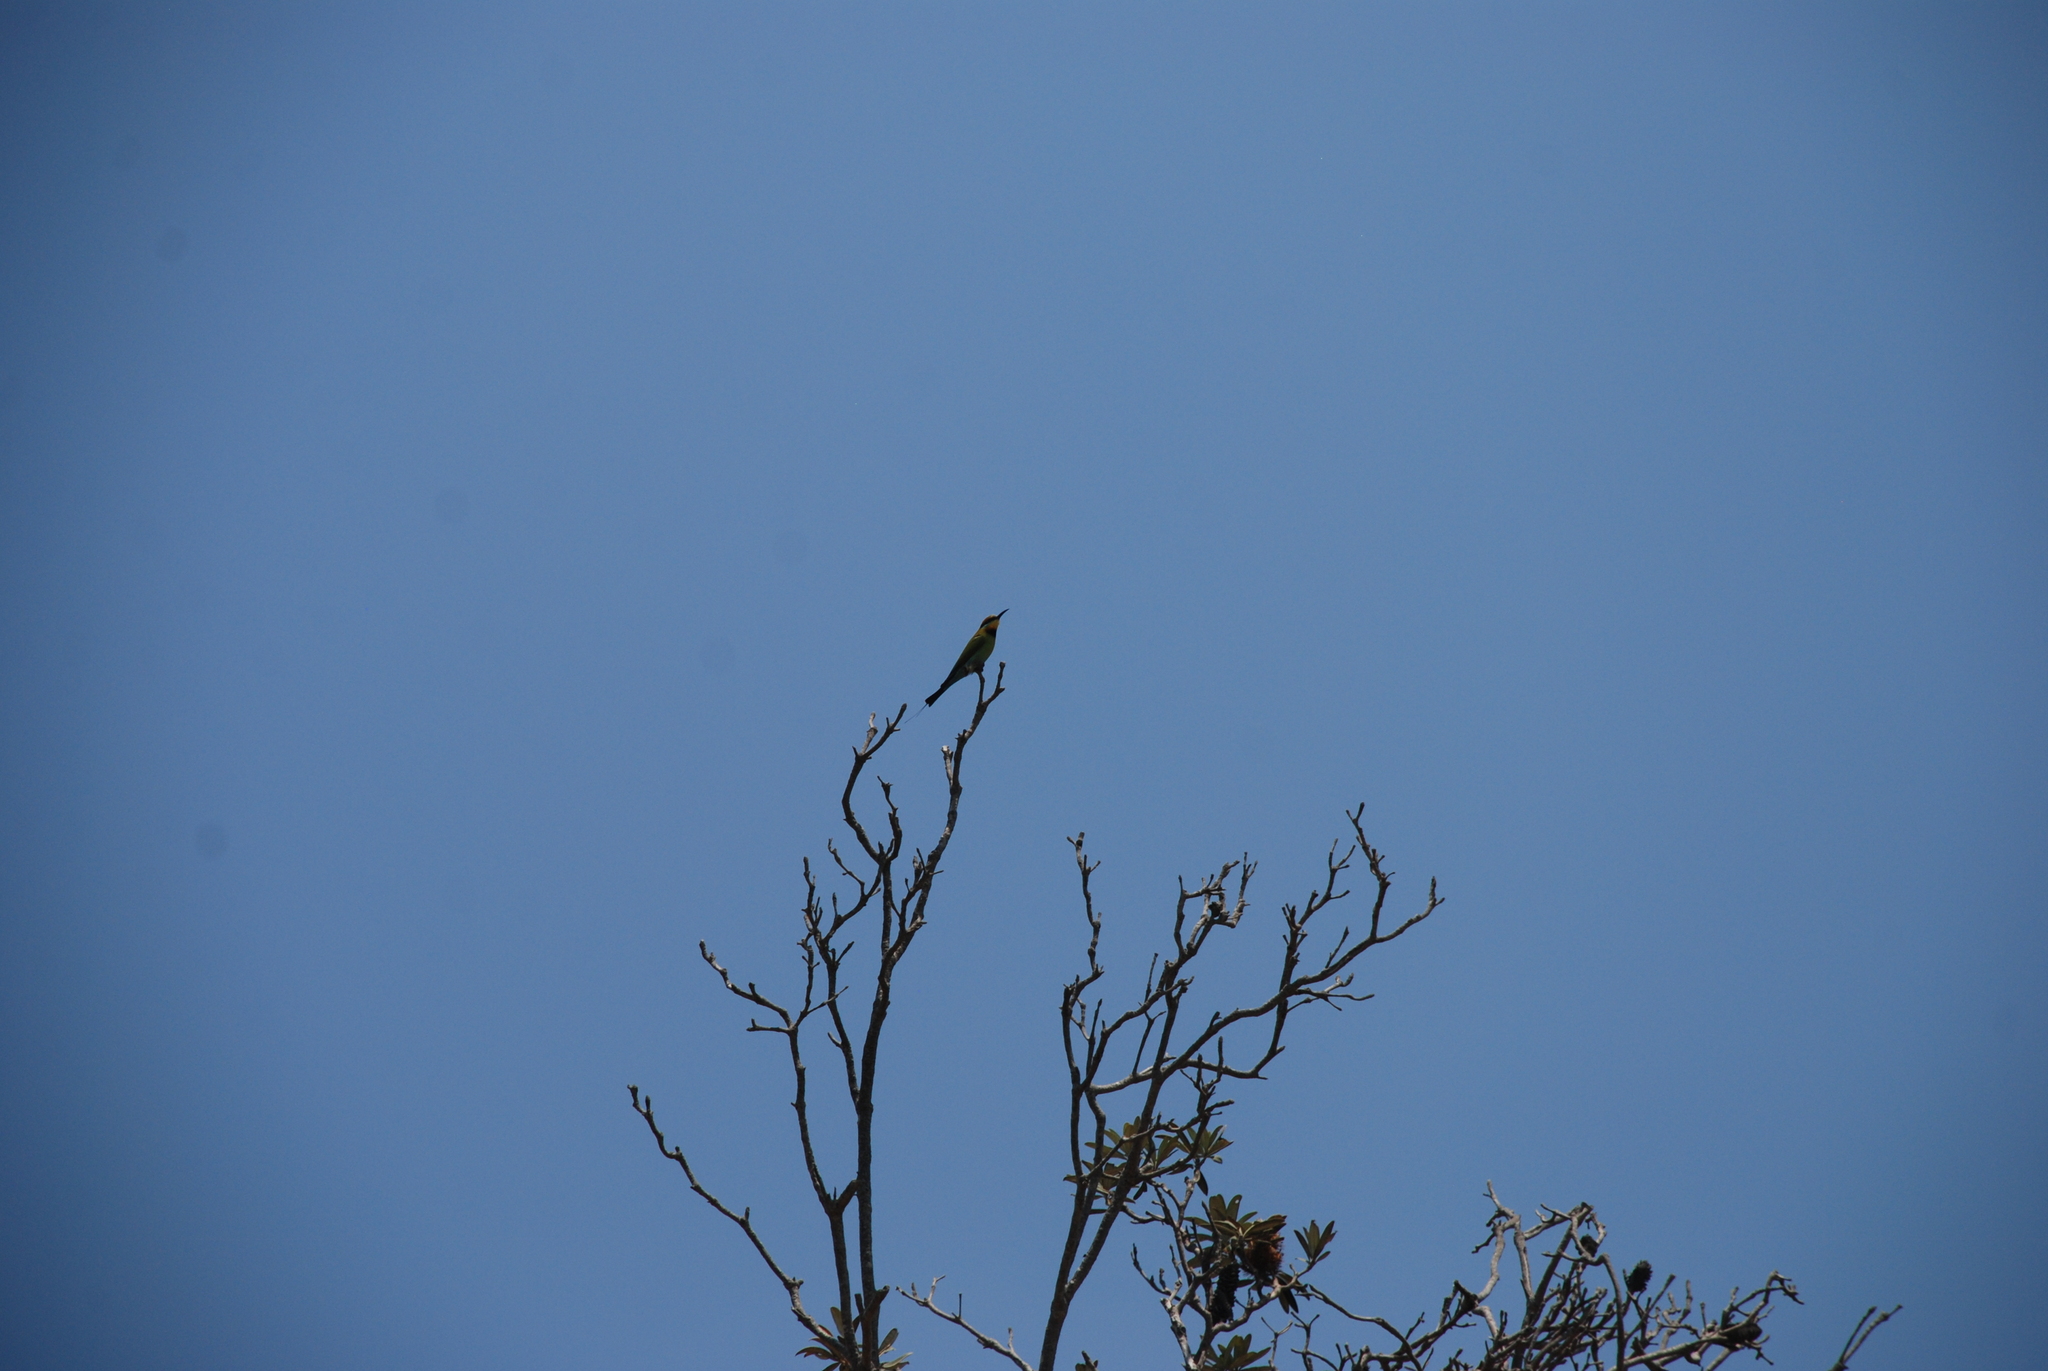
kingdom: Animalia
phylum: Chordata
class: Aves
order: Coraciiformes
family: Meropidae
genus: Merops
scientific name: Merops ornatus
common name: Rainbow bee-eater
